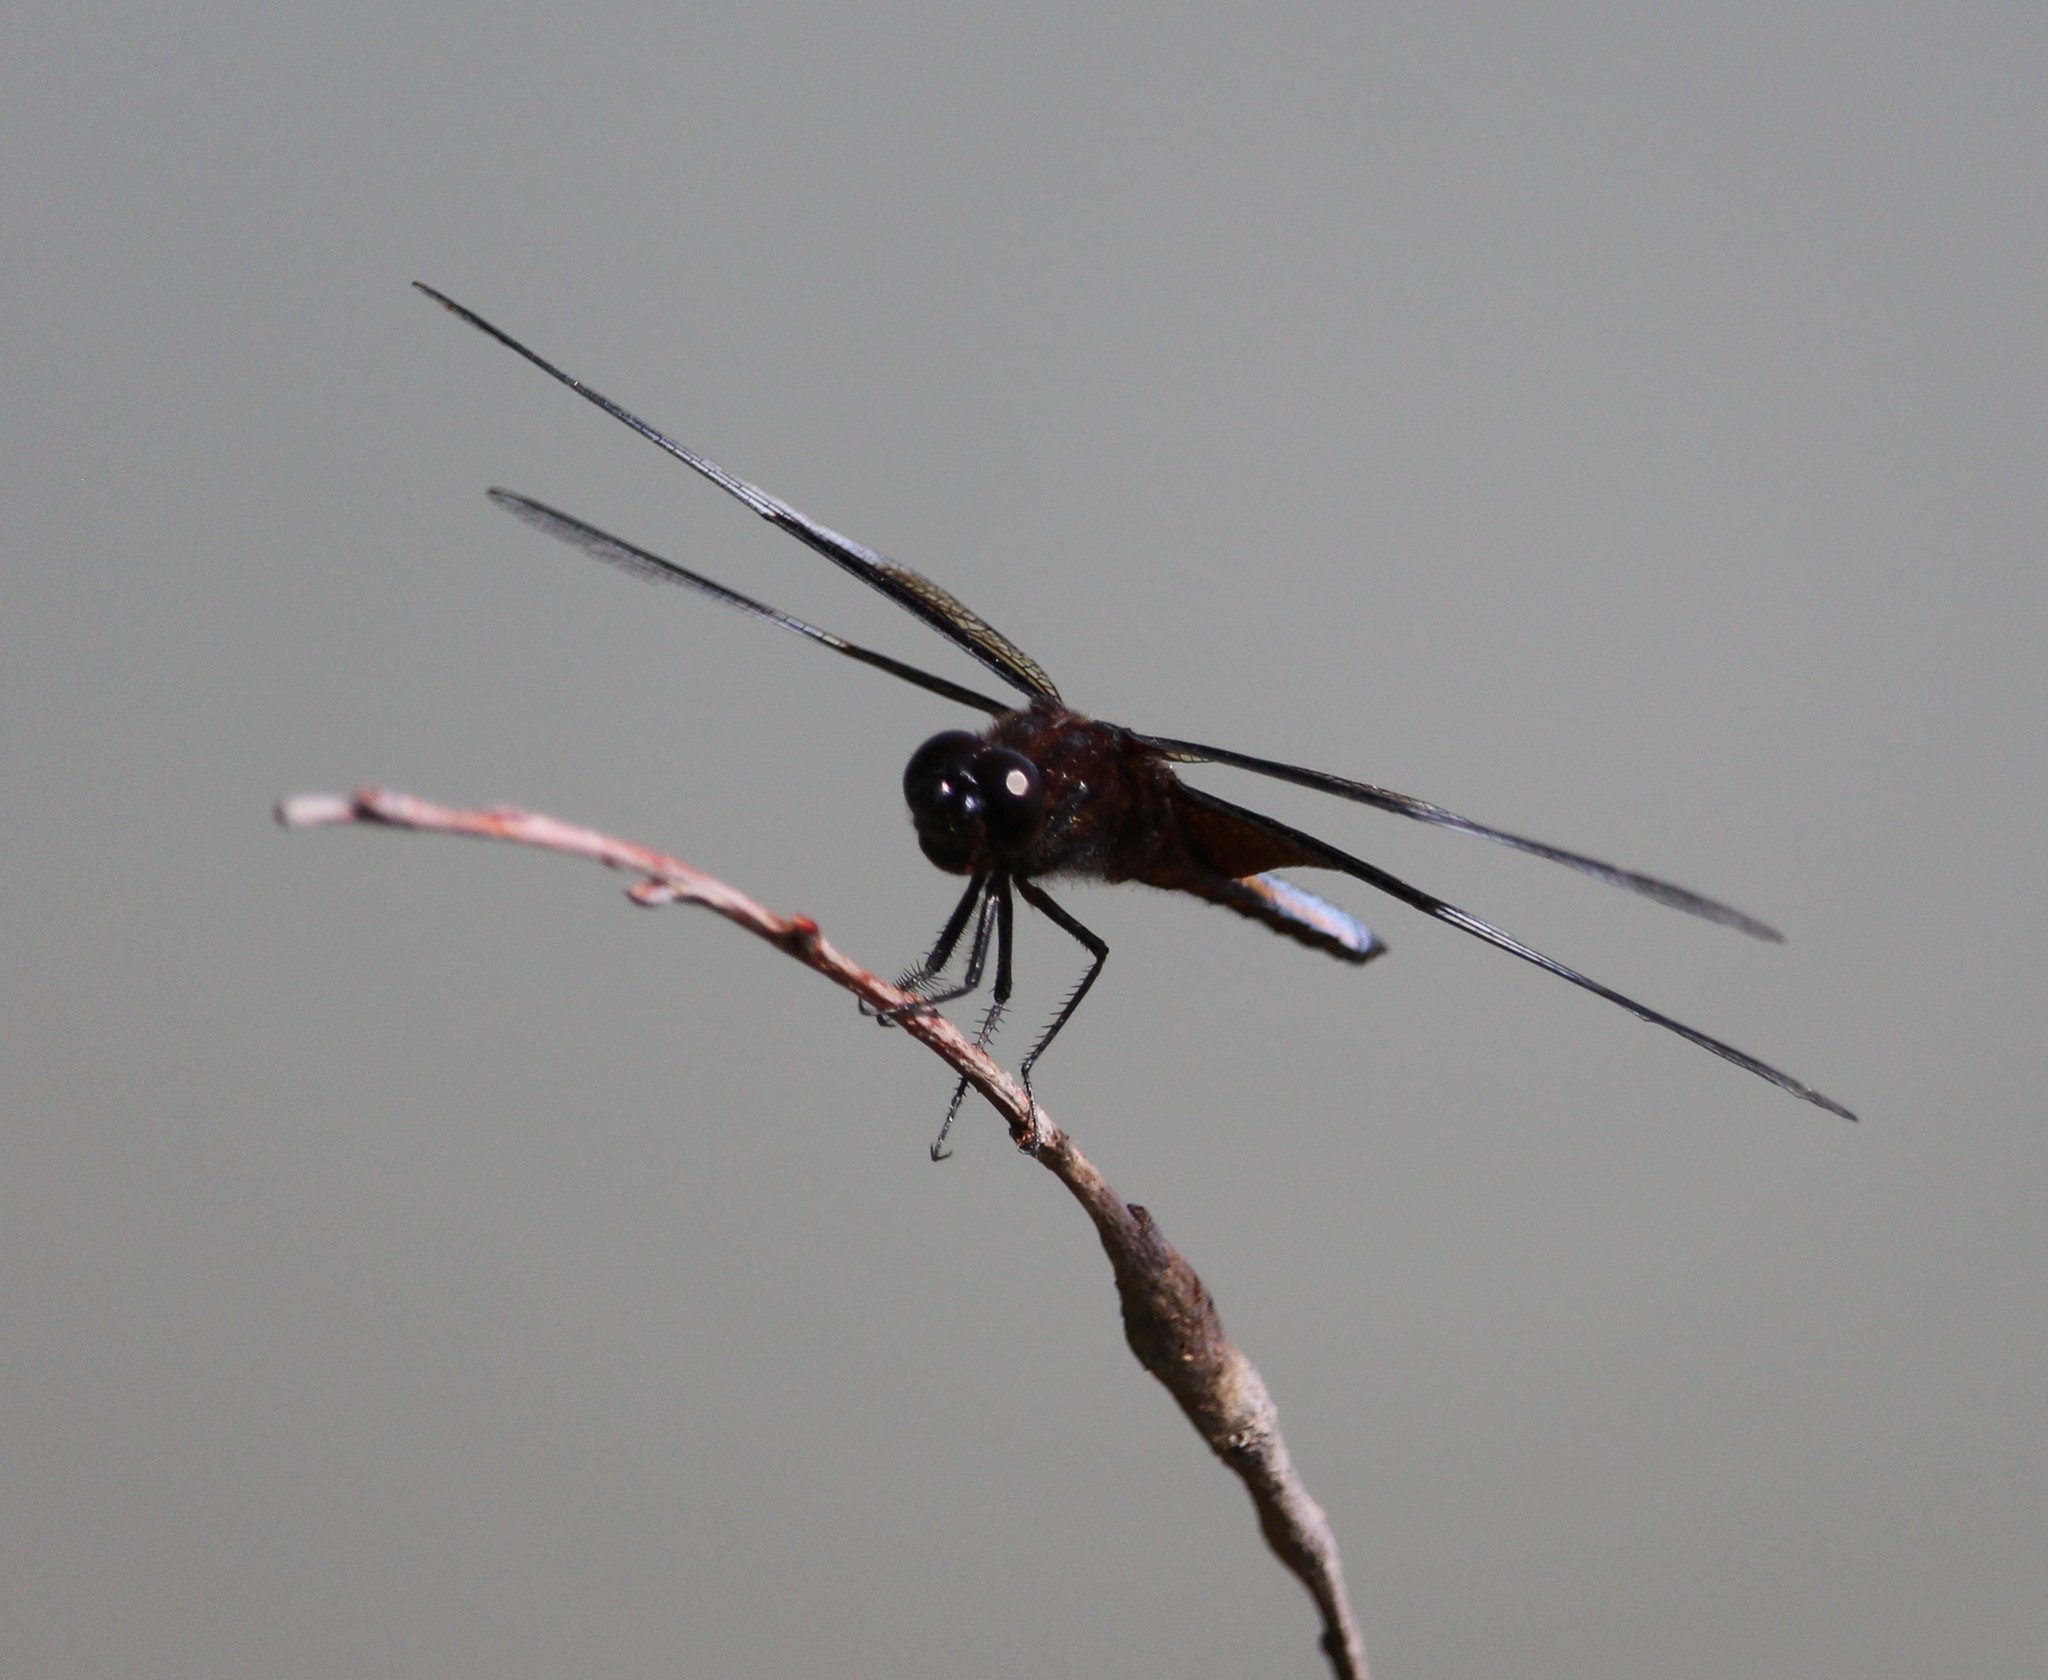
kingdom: Animalia
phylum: Arthropoda
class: Insecta
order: Odonata
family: Libellulidae
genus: Libellula
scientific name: Libellula luctuosa
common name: Widow skimmer
